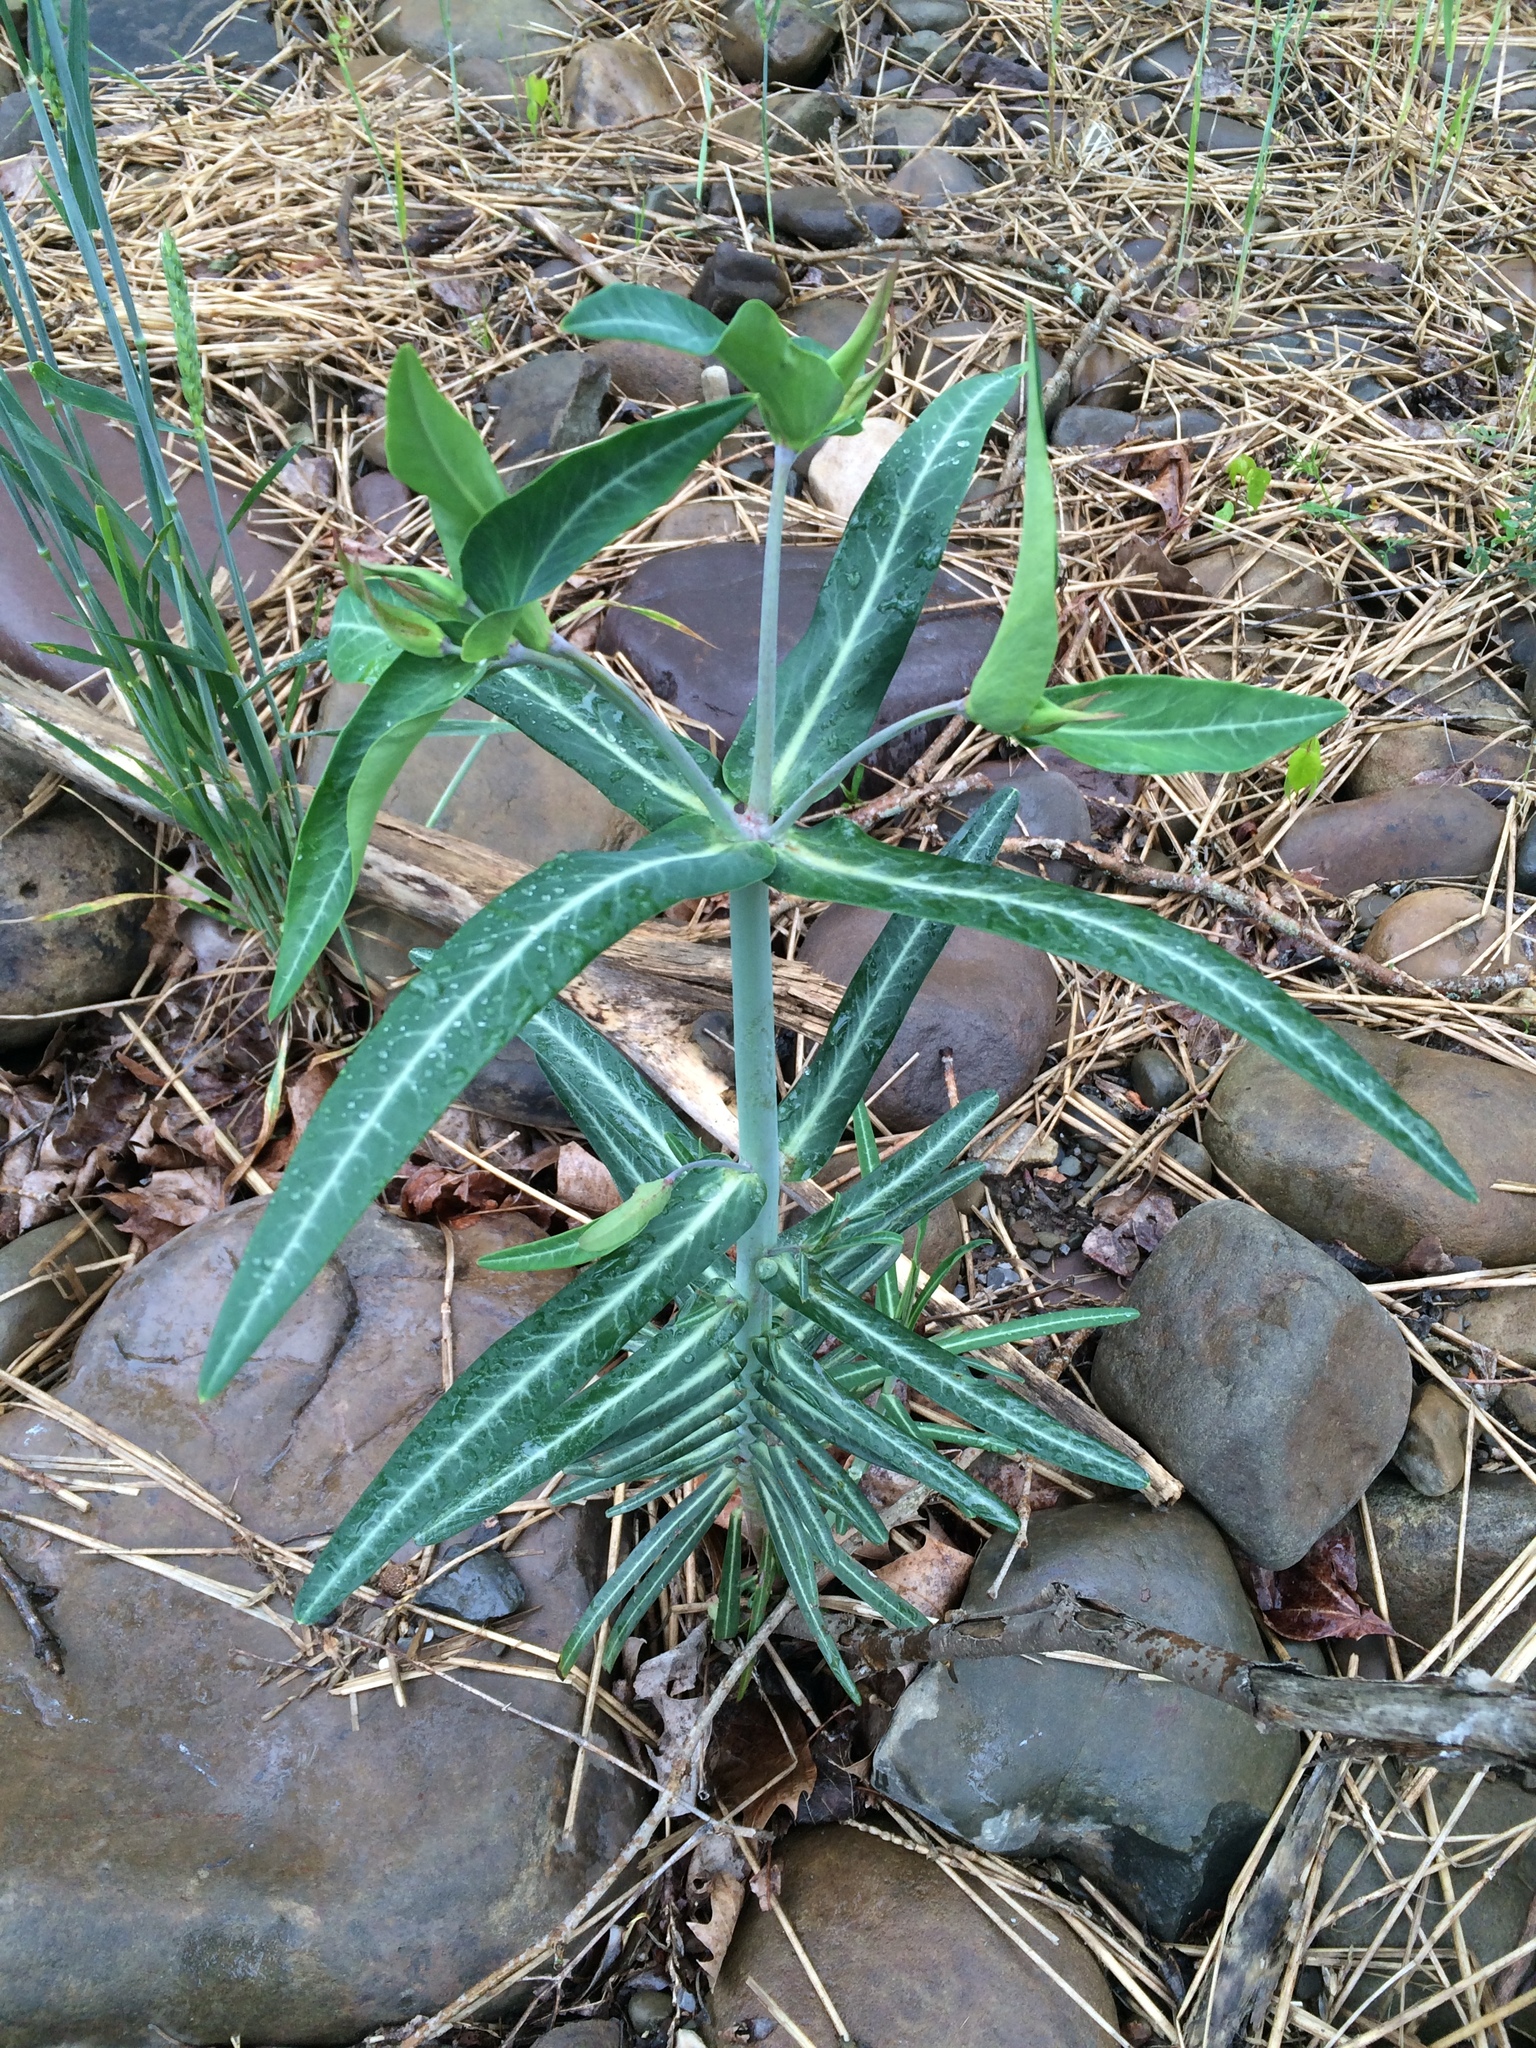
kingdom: Plantae
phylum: Tracheophyta
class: Magnoliopsida
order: Malpighiales
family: Euphorbiaceae
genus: Euphorbia
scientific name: Euphorbia lathyris
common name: Caper spurge
